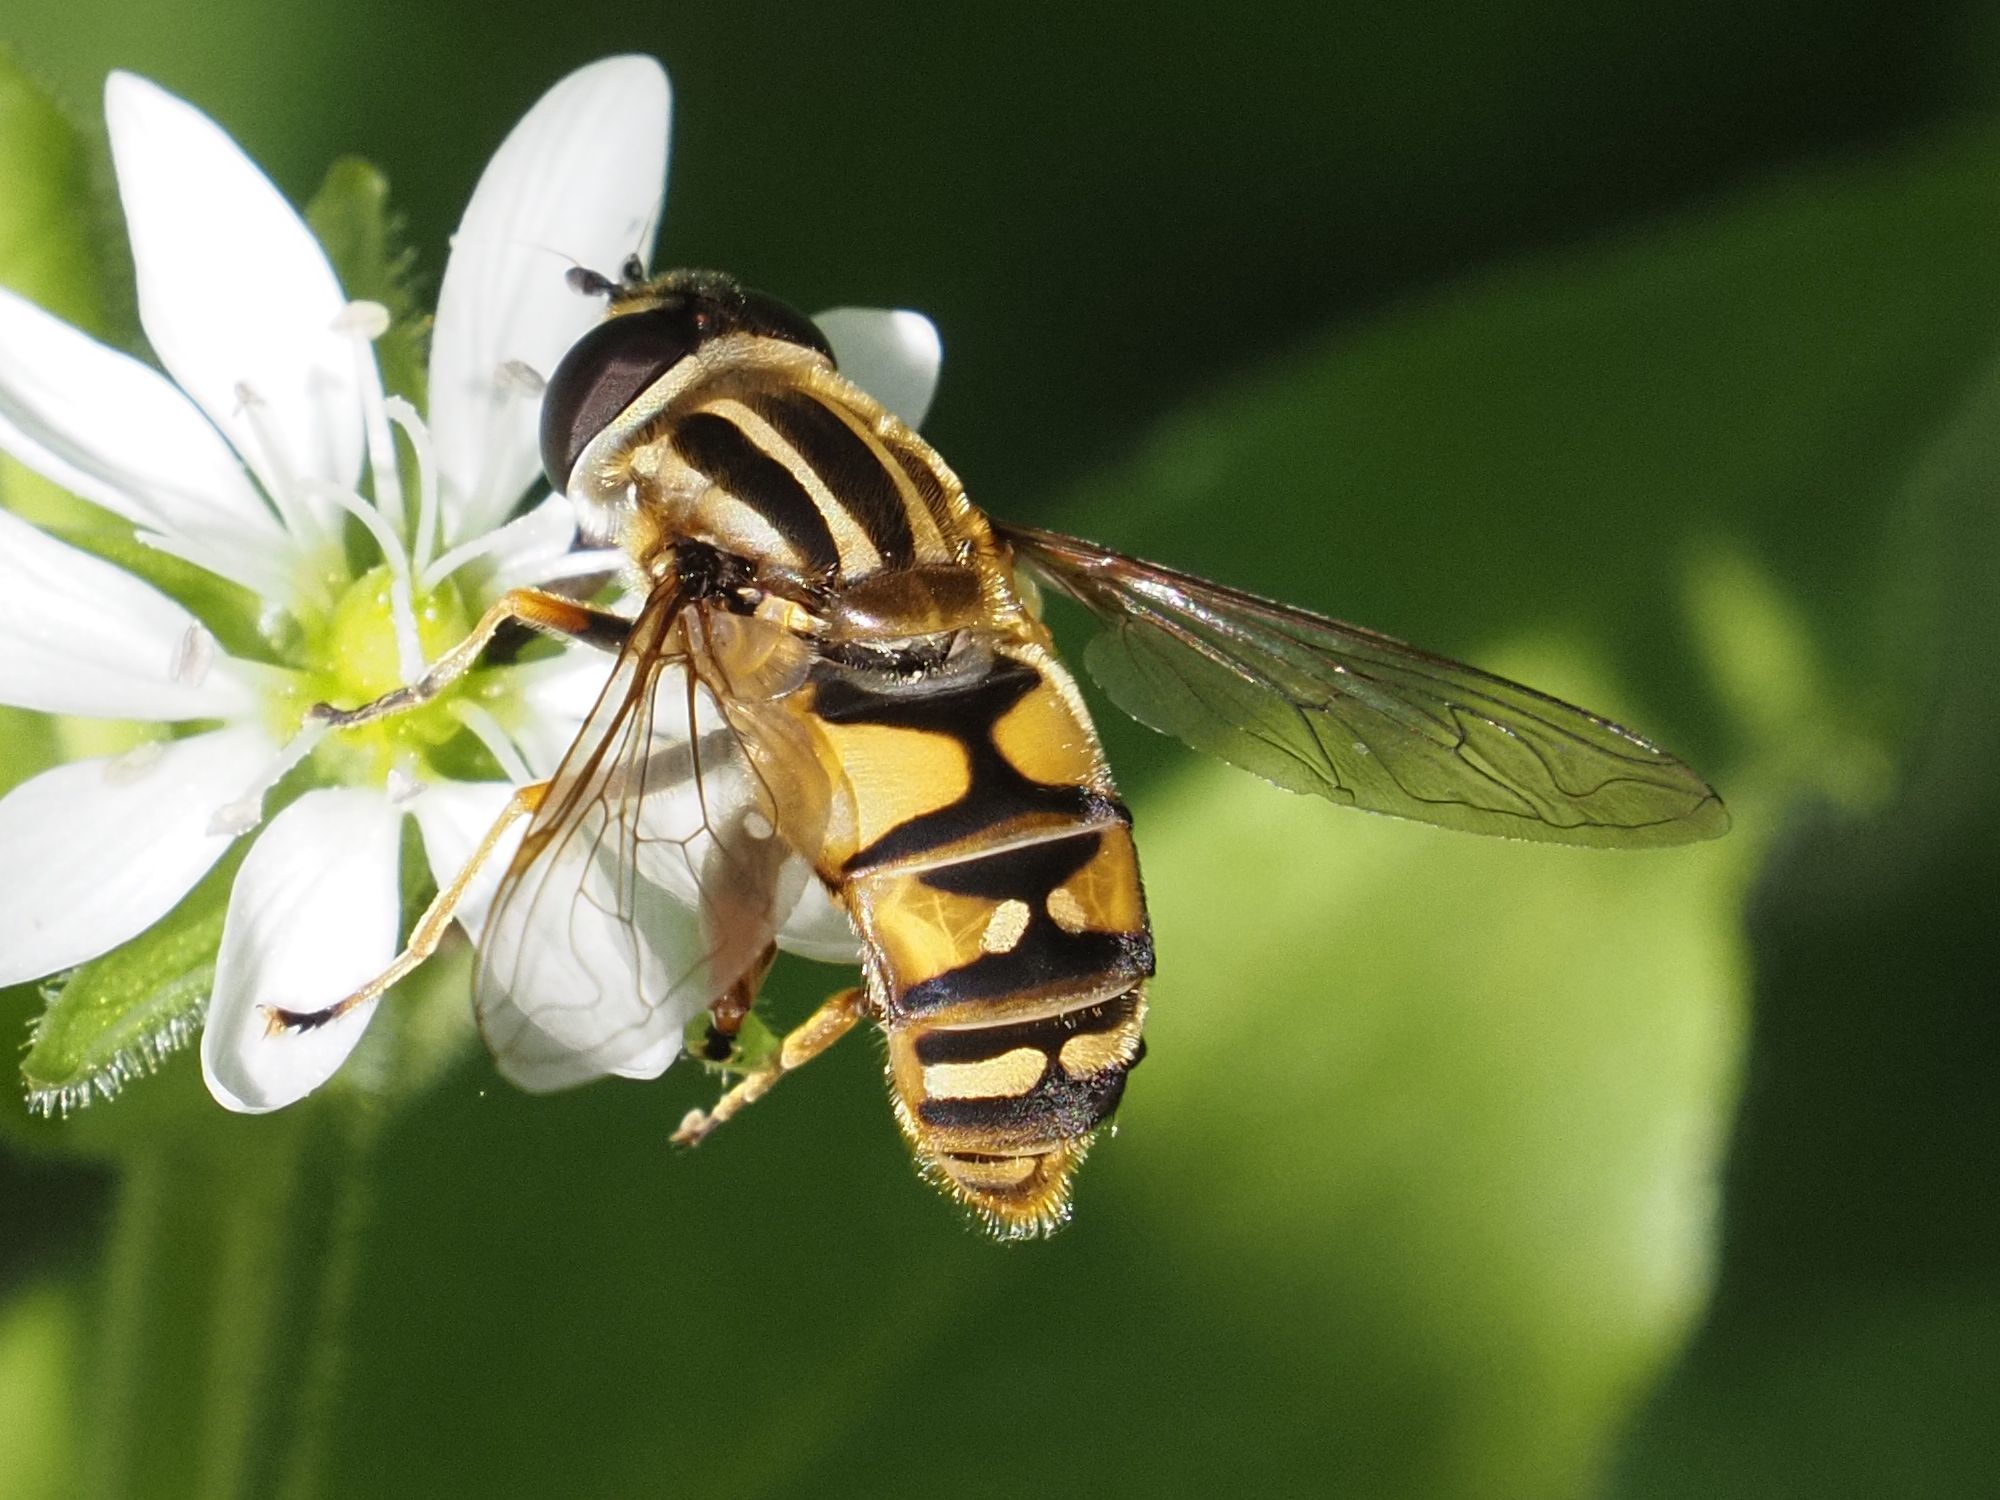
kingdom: Animalia
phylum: Arthropoda
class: Insecta
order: Diptera
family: Syrphidae
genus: Helophilus
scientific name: Helophilus pendulus
